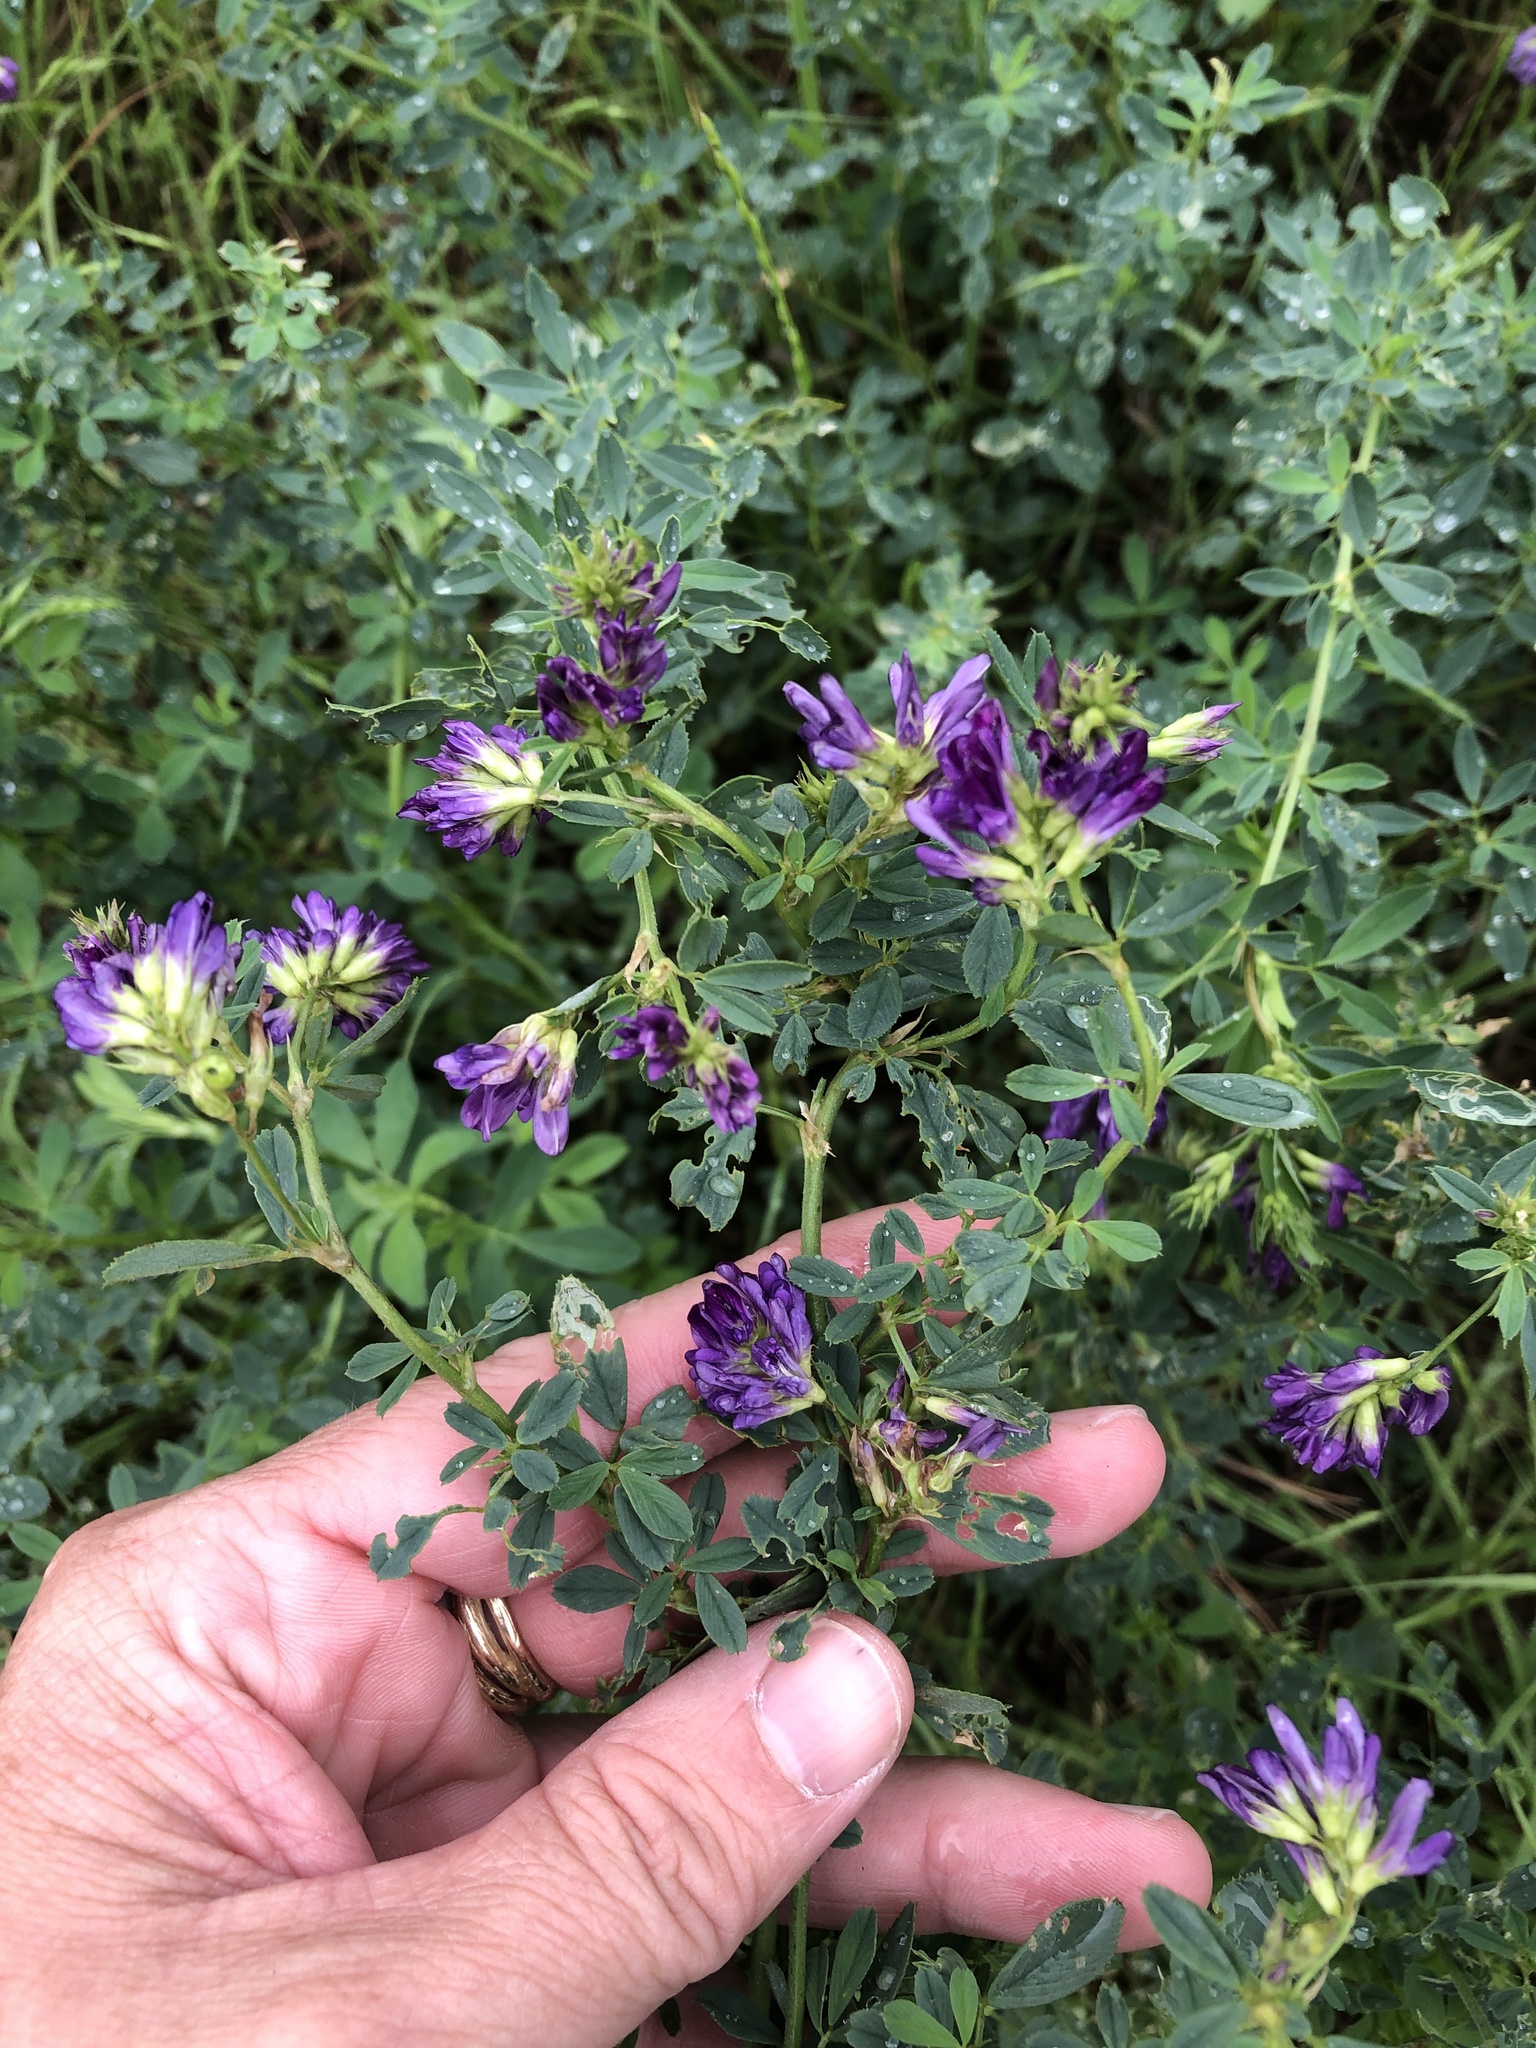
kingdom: Plantae
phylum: Tracheophyta
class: Magnoliopsida
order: Fabales
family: Fabaceae
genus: Medicago
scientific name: Medicago sativa
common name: Alfalfa
